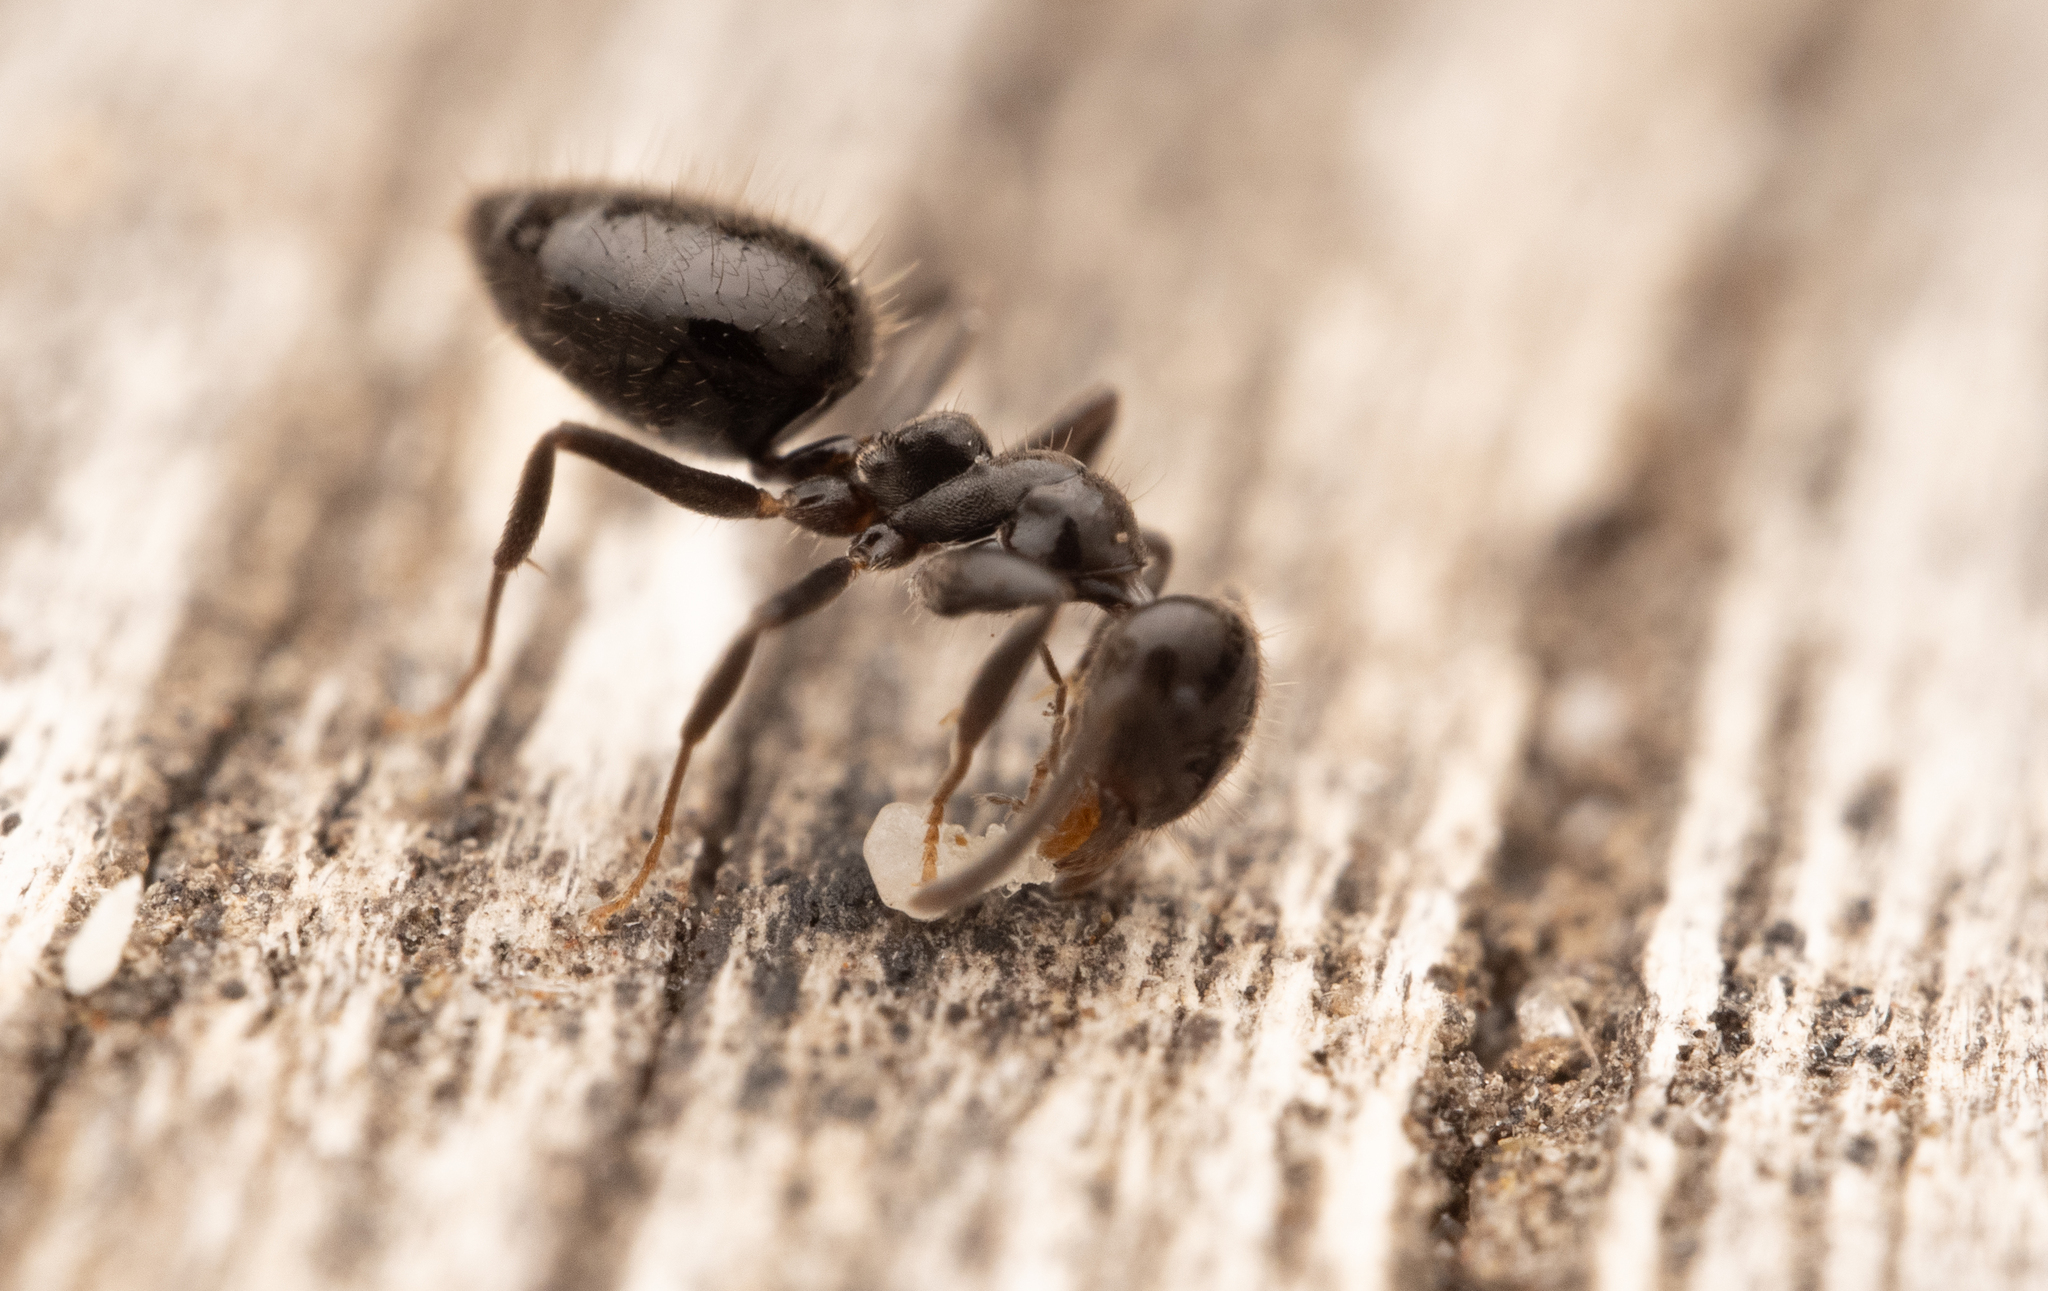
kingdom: Animalia
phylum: Arthropoda
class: Insecta
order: Hymenoptera
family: Formicidae
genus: Technomyrmex
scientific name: Technomyrmex sophiae
